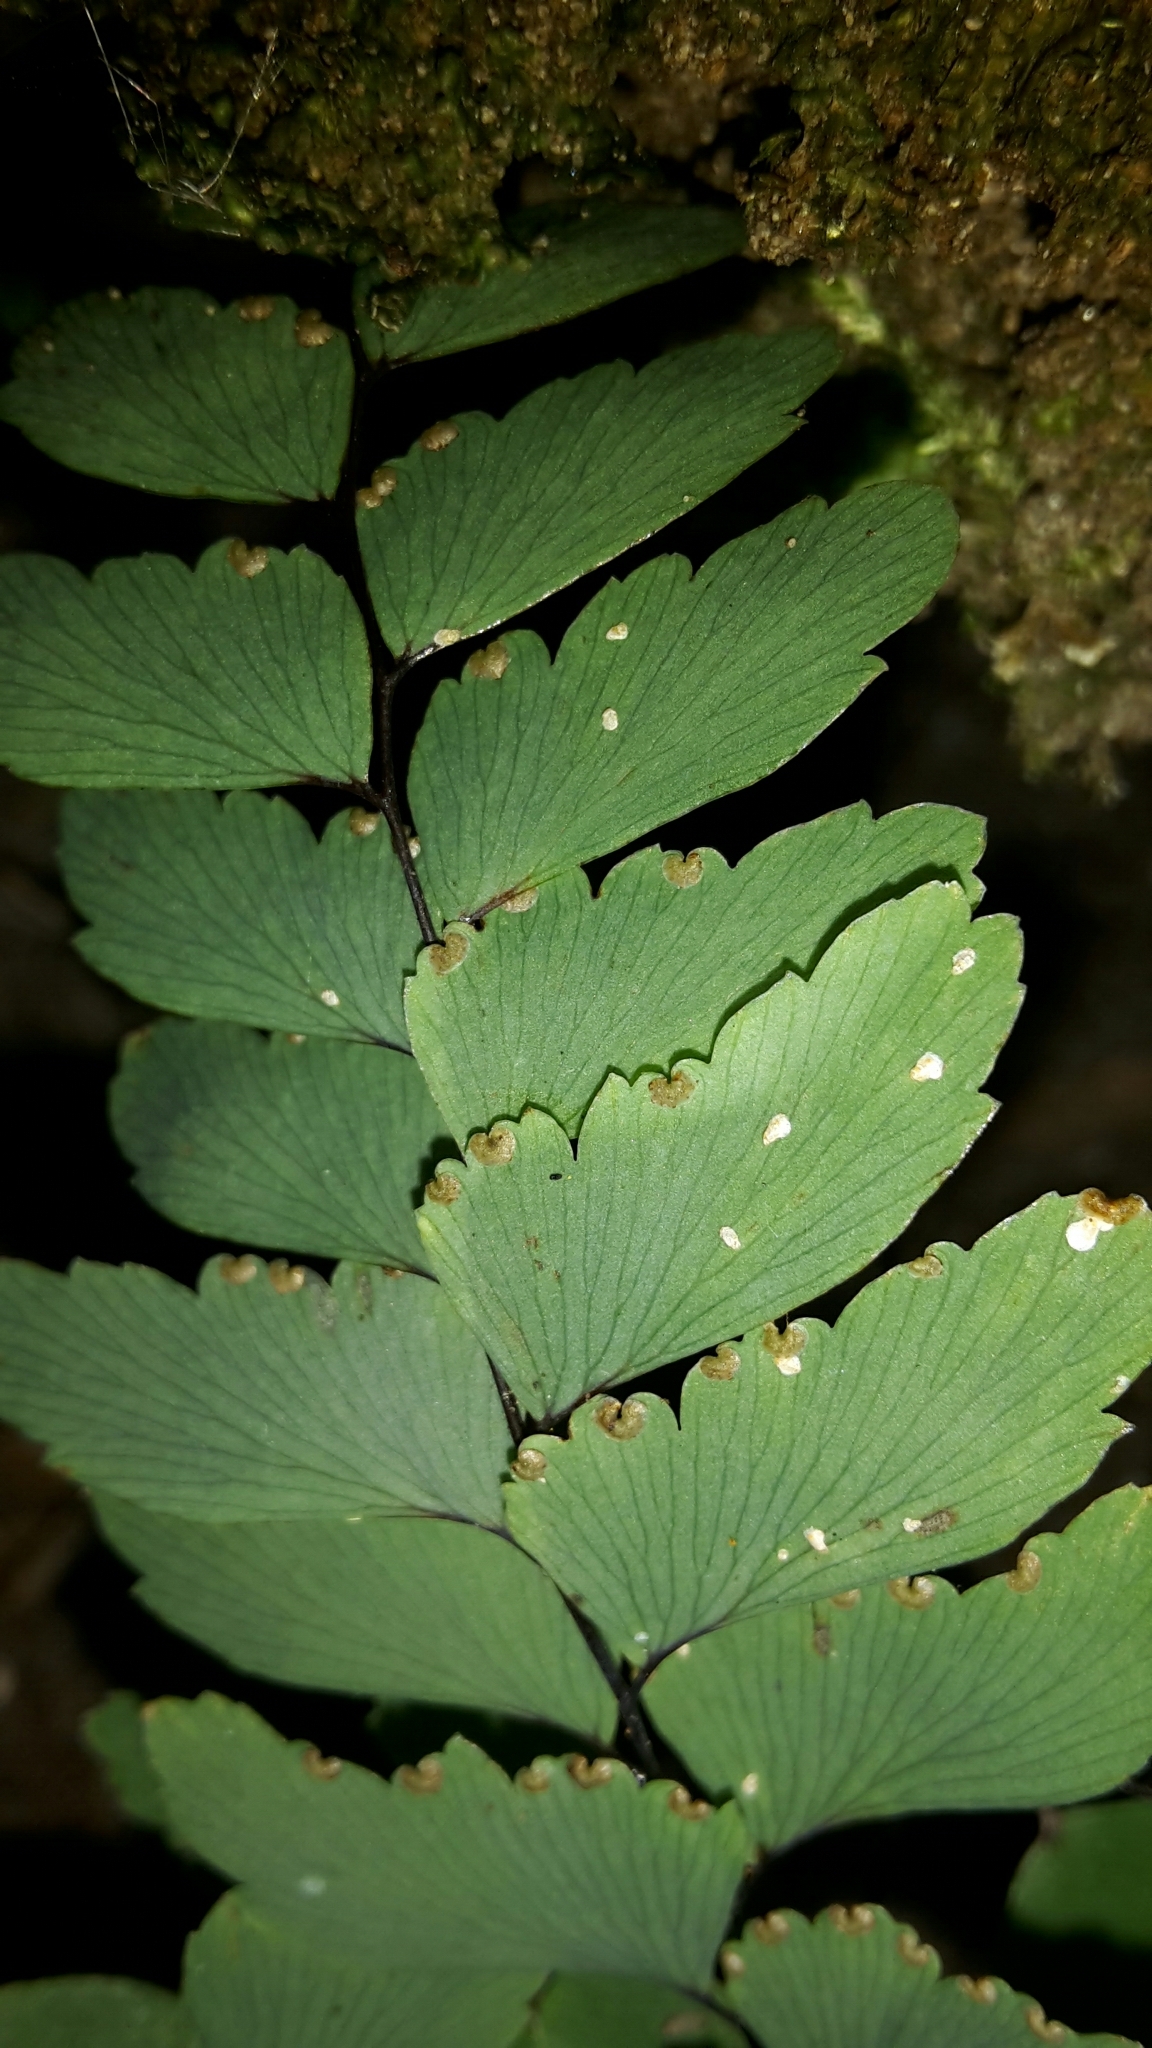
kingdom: Plantae
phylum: Tracheophyta
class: Polypodiopsida
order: Polypodiales
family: Pteridaceae
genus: Adiantum
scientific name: Adiantum cunninghamii
